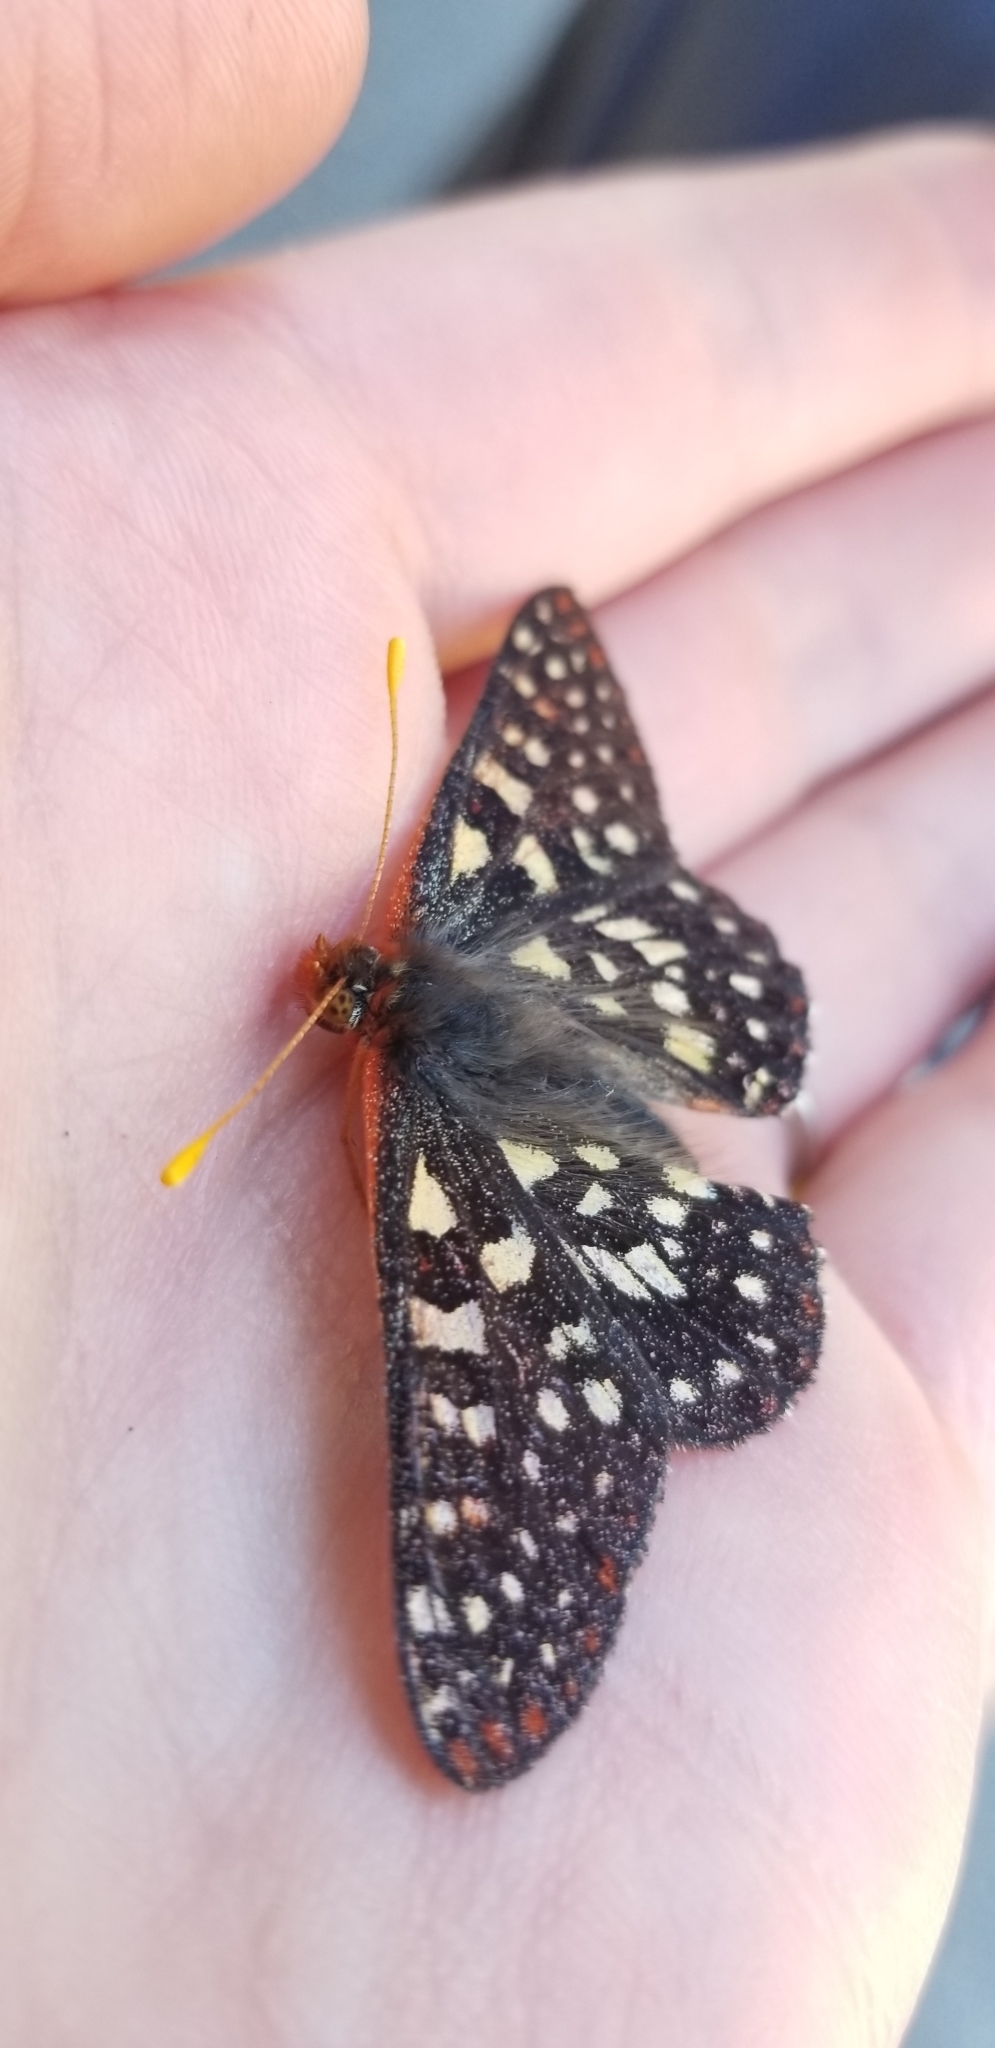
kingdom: Animalia
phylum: Arthropoda
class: Insecta
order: Lepidoptera
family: Nymphalidae
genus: Occidryas
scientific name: Occidryas chalcedona
